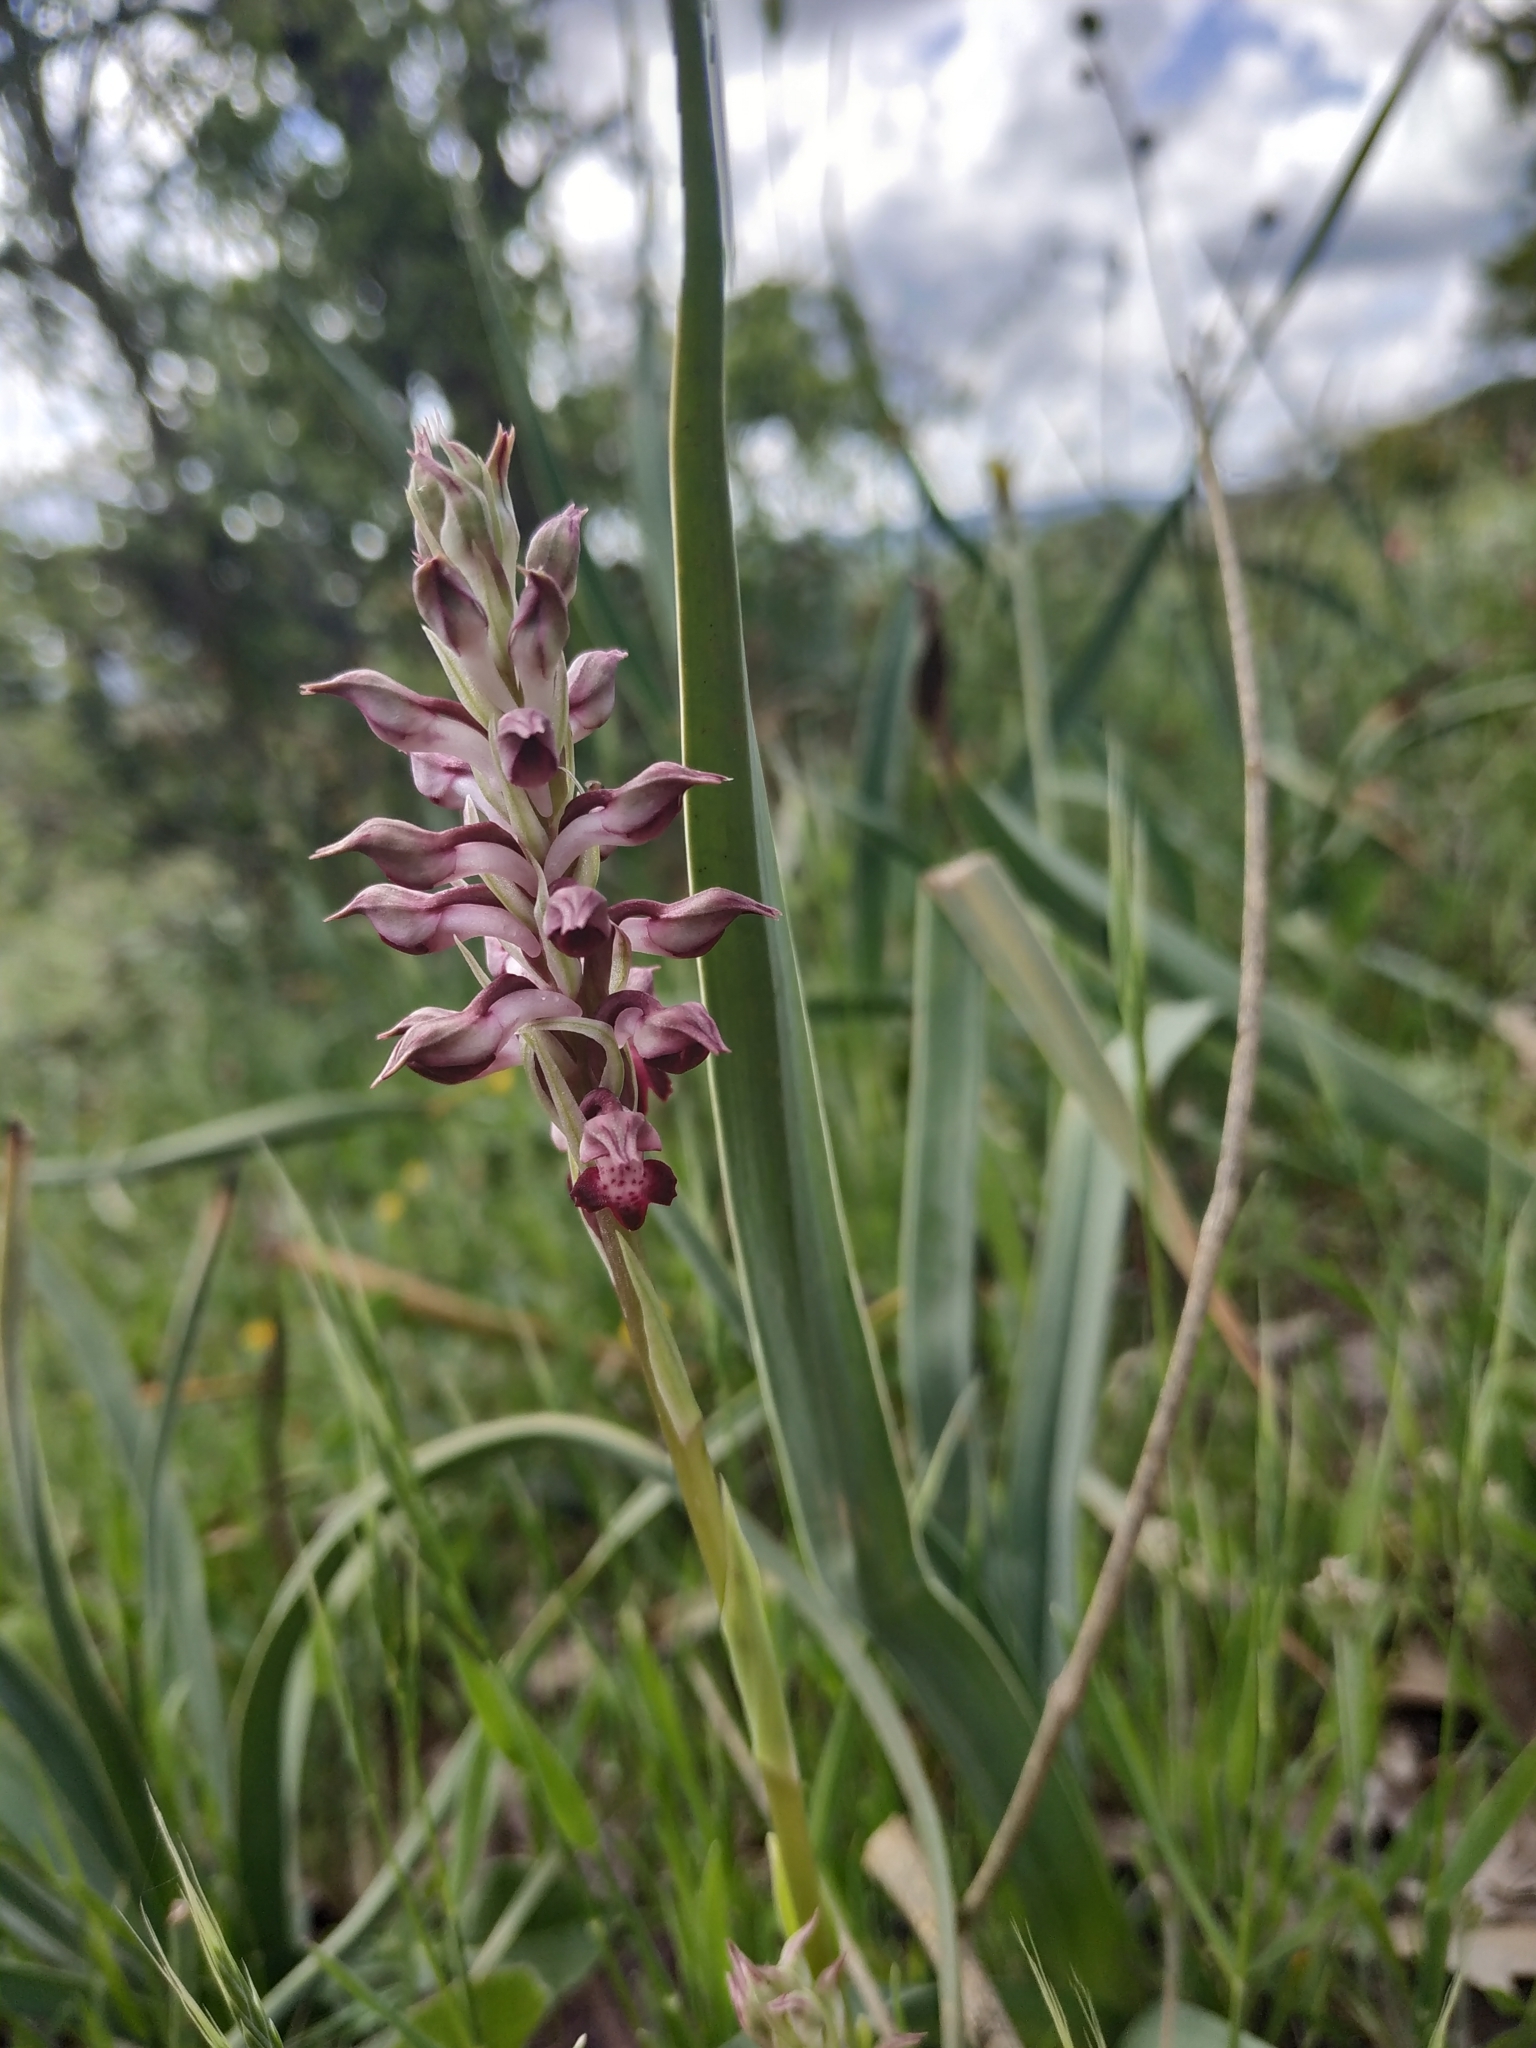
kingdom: Plantae
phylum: Tracheophyta
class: Liliopsida
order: Asparagales
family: Orchidaceae
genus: Anacamptis
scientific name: Anacamptis coriophora
